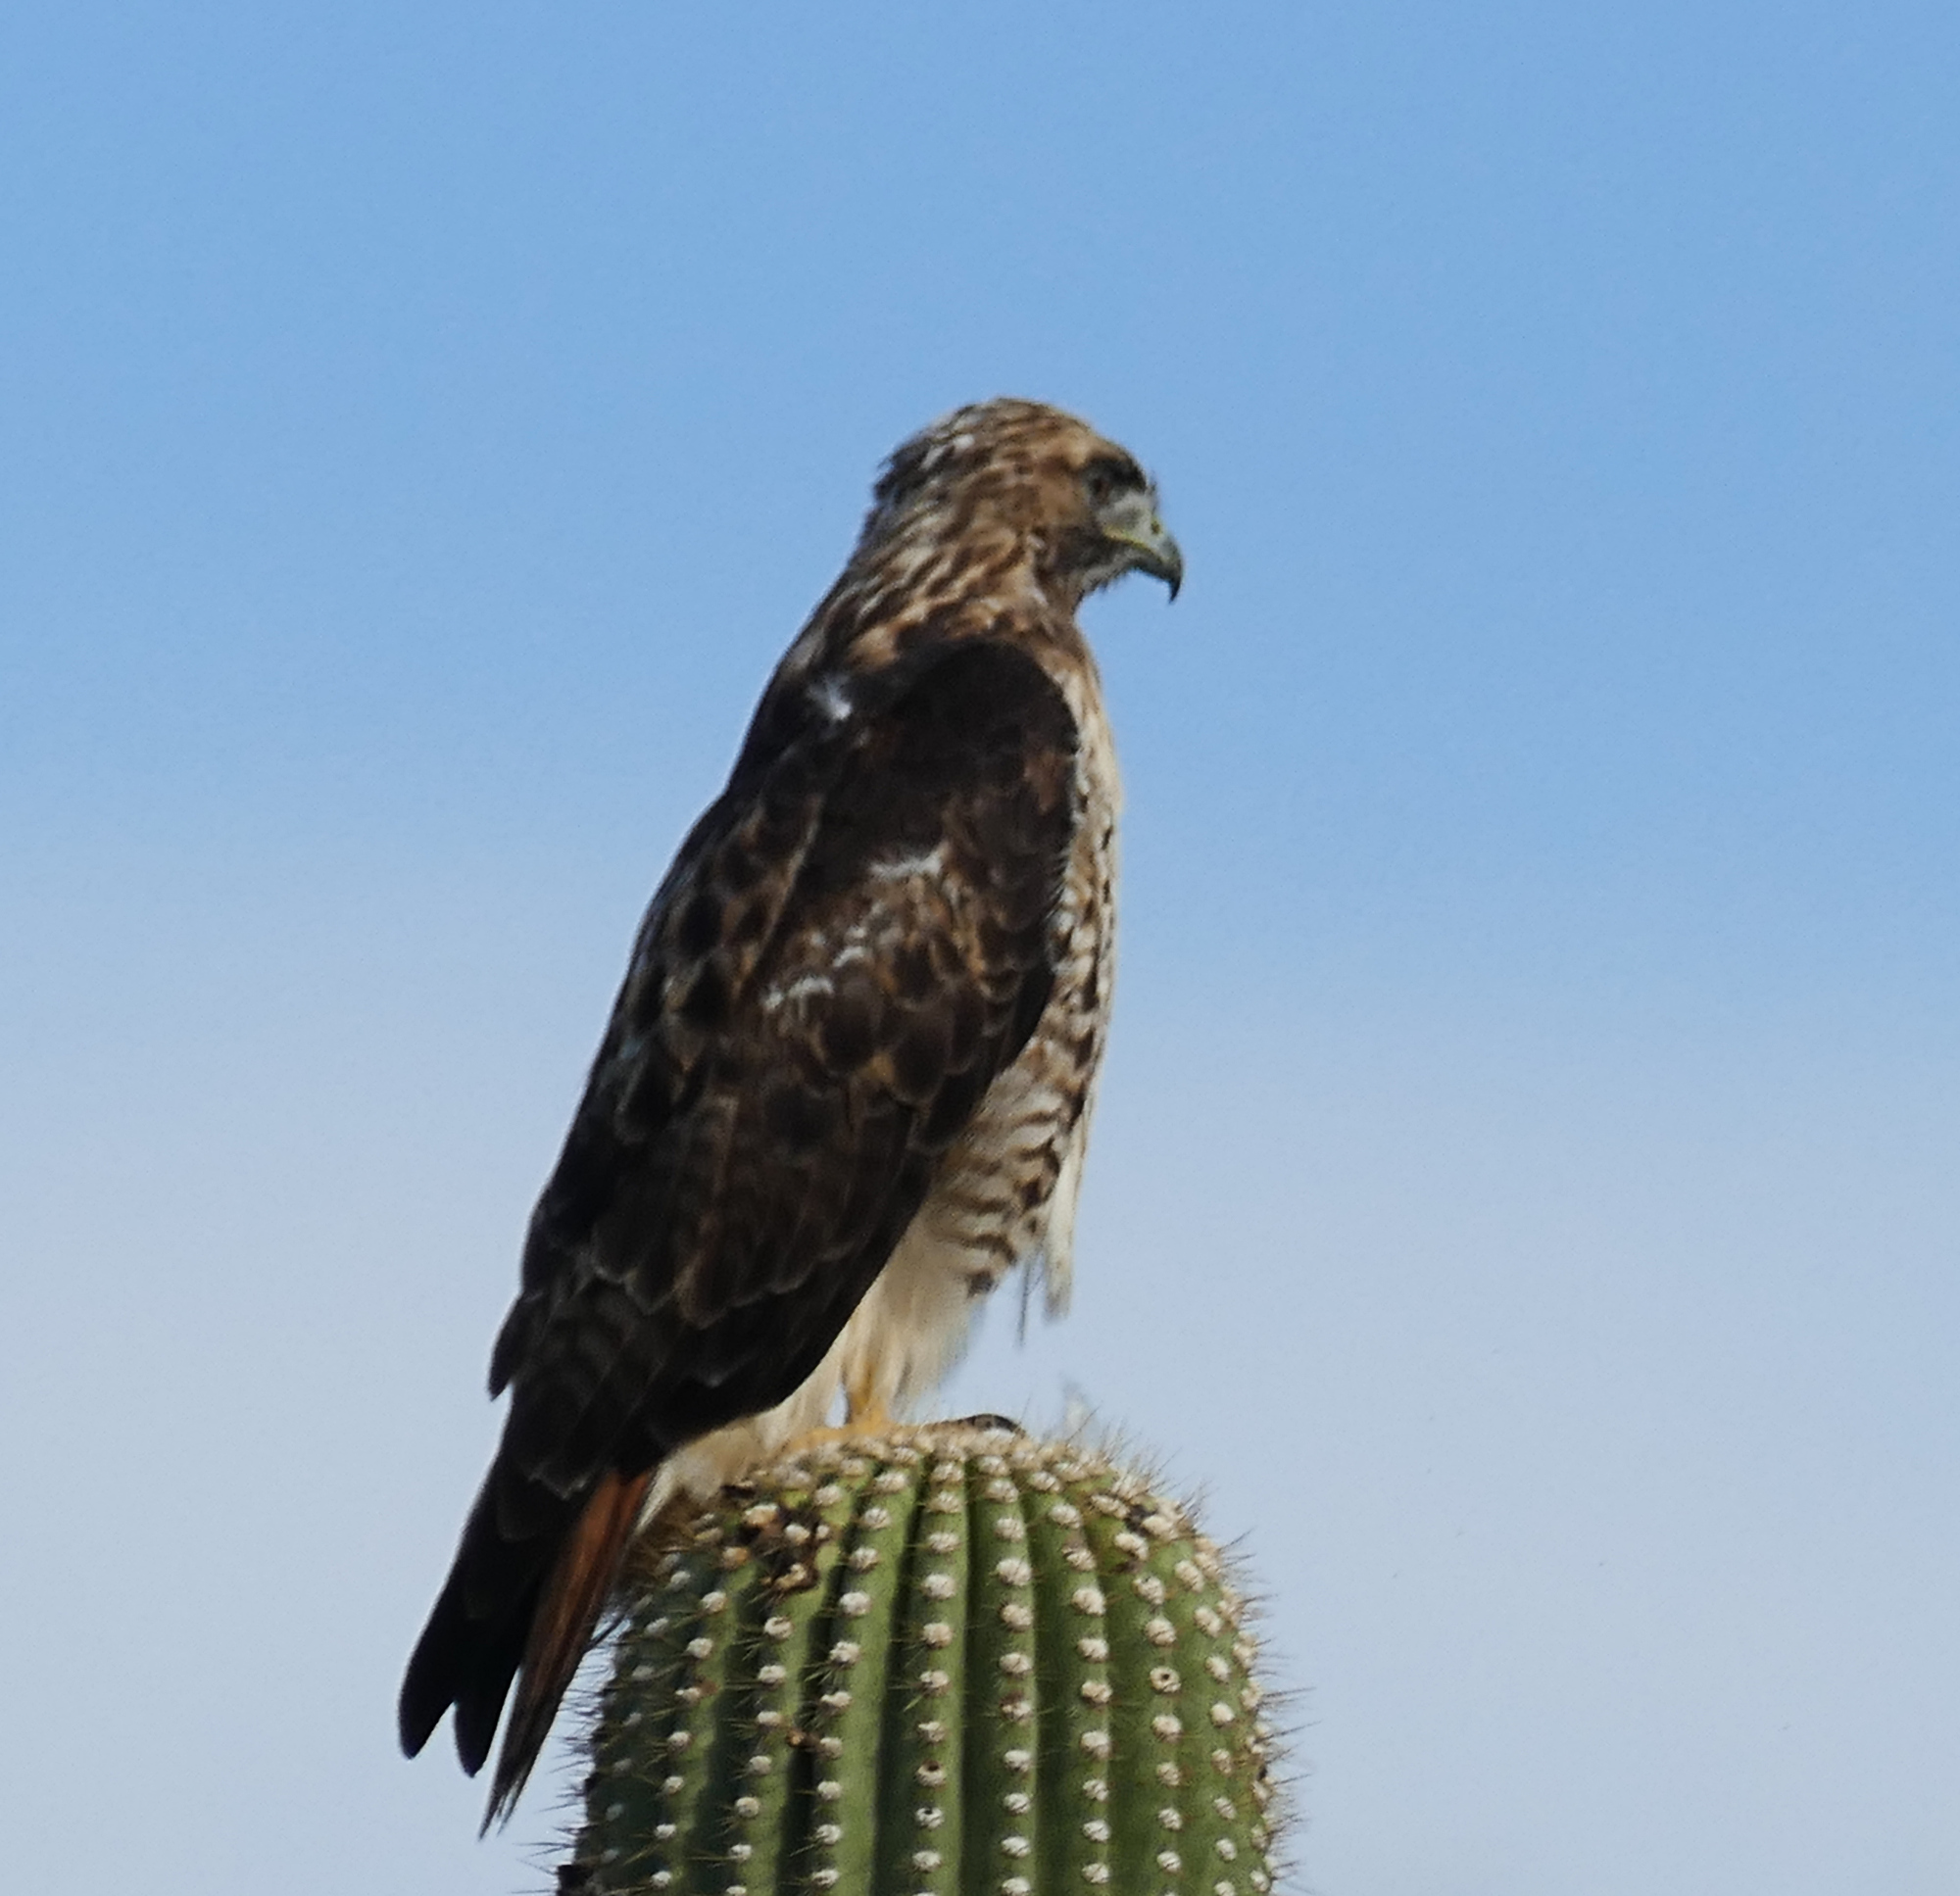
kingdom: Animalia
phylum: Chordata
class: Aves
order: Accipitriformes
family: Accipitridae
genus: Buteo
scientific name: Buteo jamaicensis
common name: Red-tailed hawk
